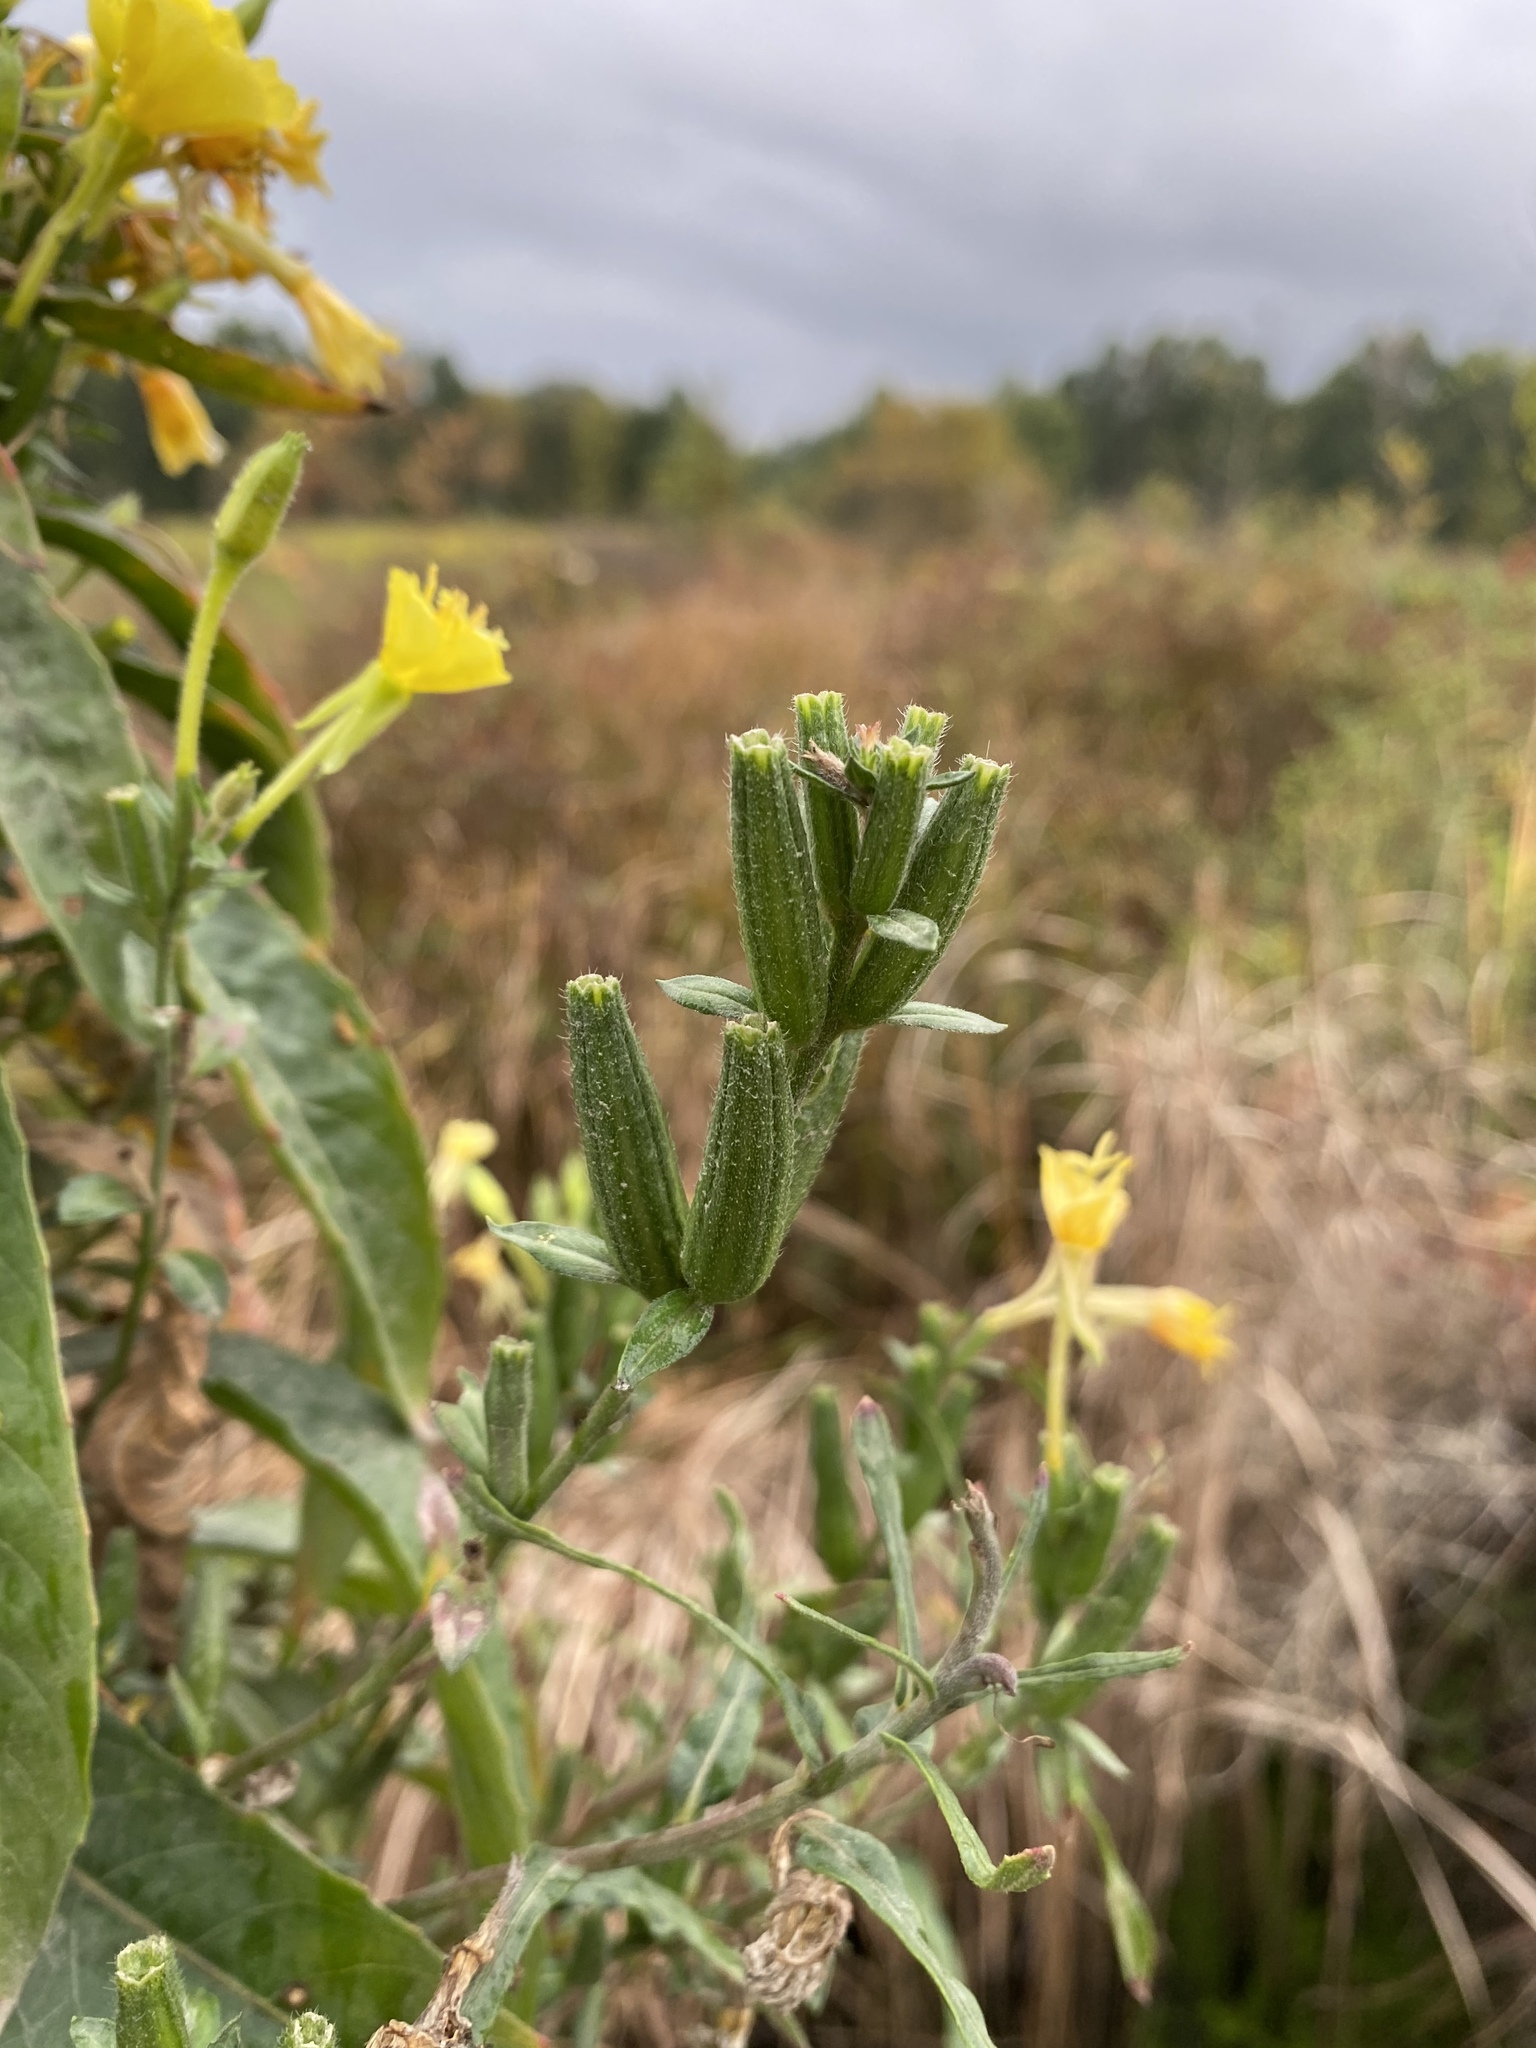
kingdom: Plantae
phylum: Tracheophyta
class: Magnoliopsida
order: Myrtales
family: Onagraceae
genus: Oenothera
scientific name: Oenothera biennis
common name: Common evening-primrose
